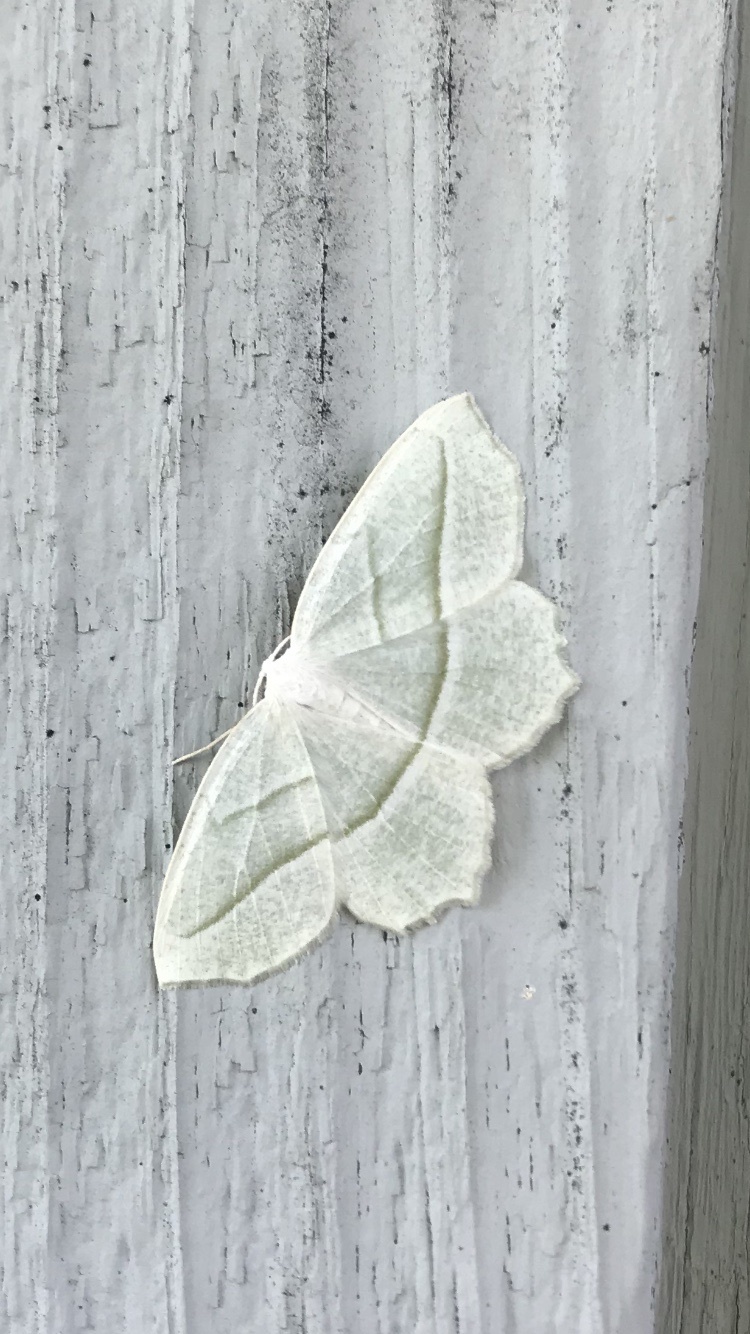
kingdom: Animalia
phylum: Arthropoda
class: Insecta
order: Lepidoptera
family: Geometridae
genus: Campaea
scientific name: Campaea perlata
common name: Fringed looper
